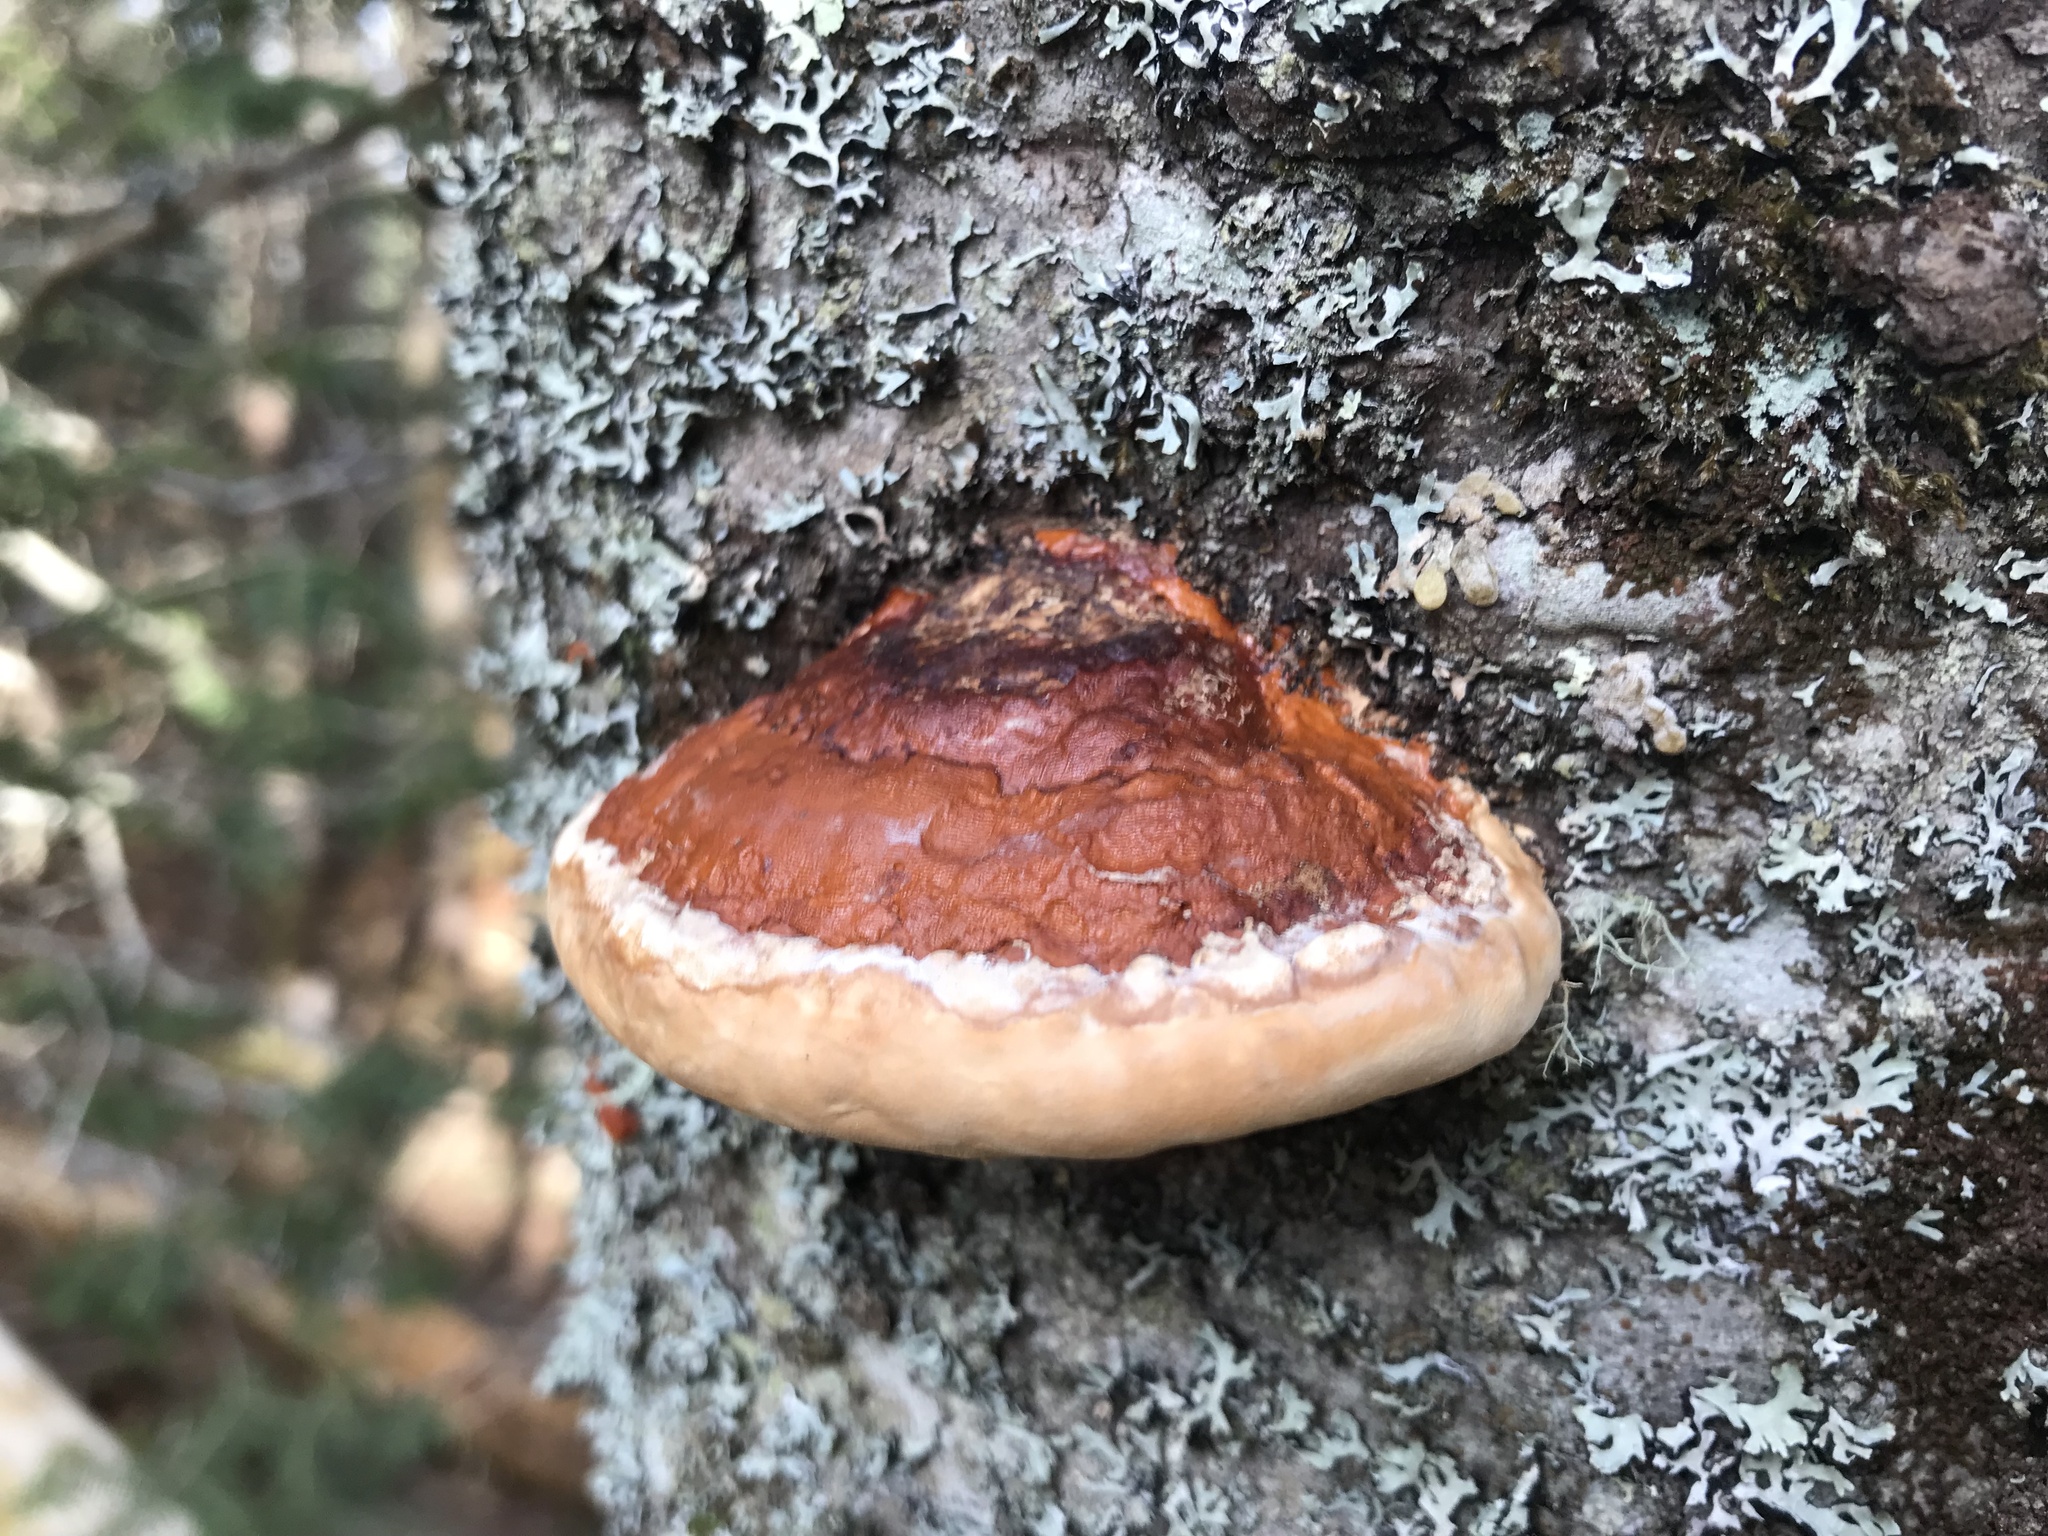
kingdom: Fungi
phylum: Basidiomycota
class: Agaricomycetes
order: Polyporales
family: Fomitopsidaceae
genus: Fomitopsis
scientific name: Fomitopsis mounceae
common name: Northern red belt
